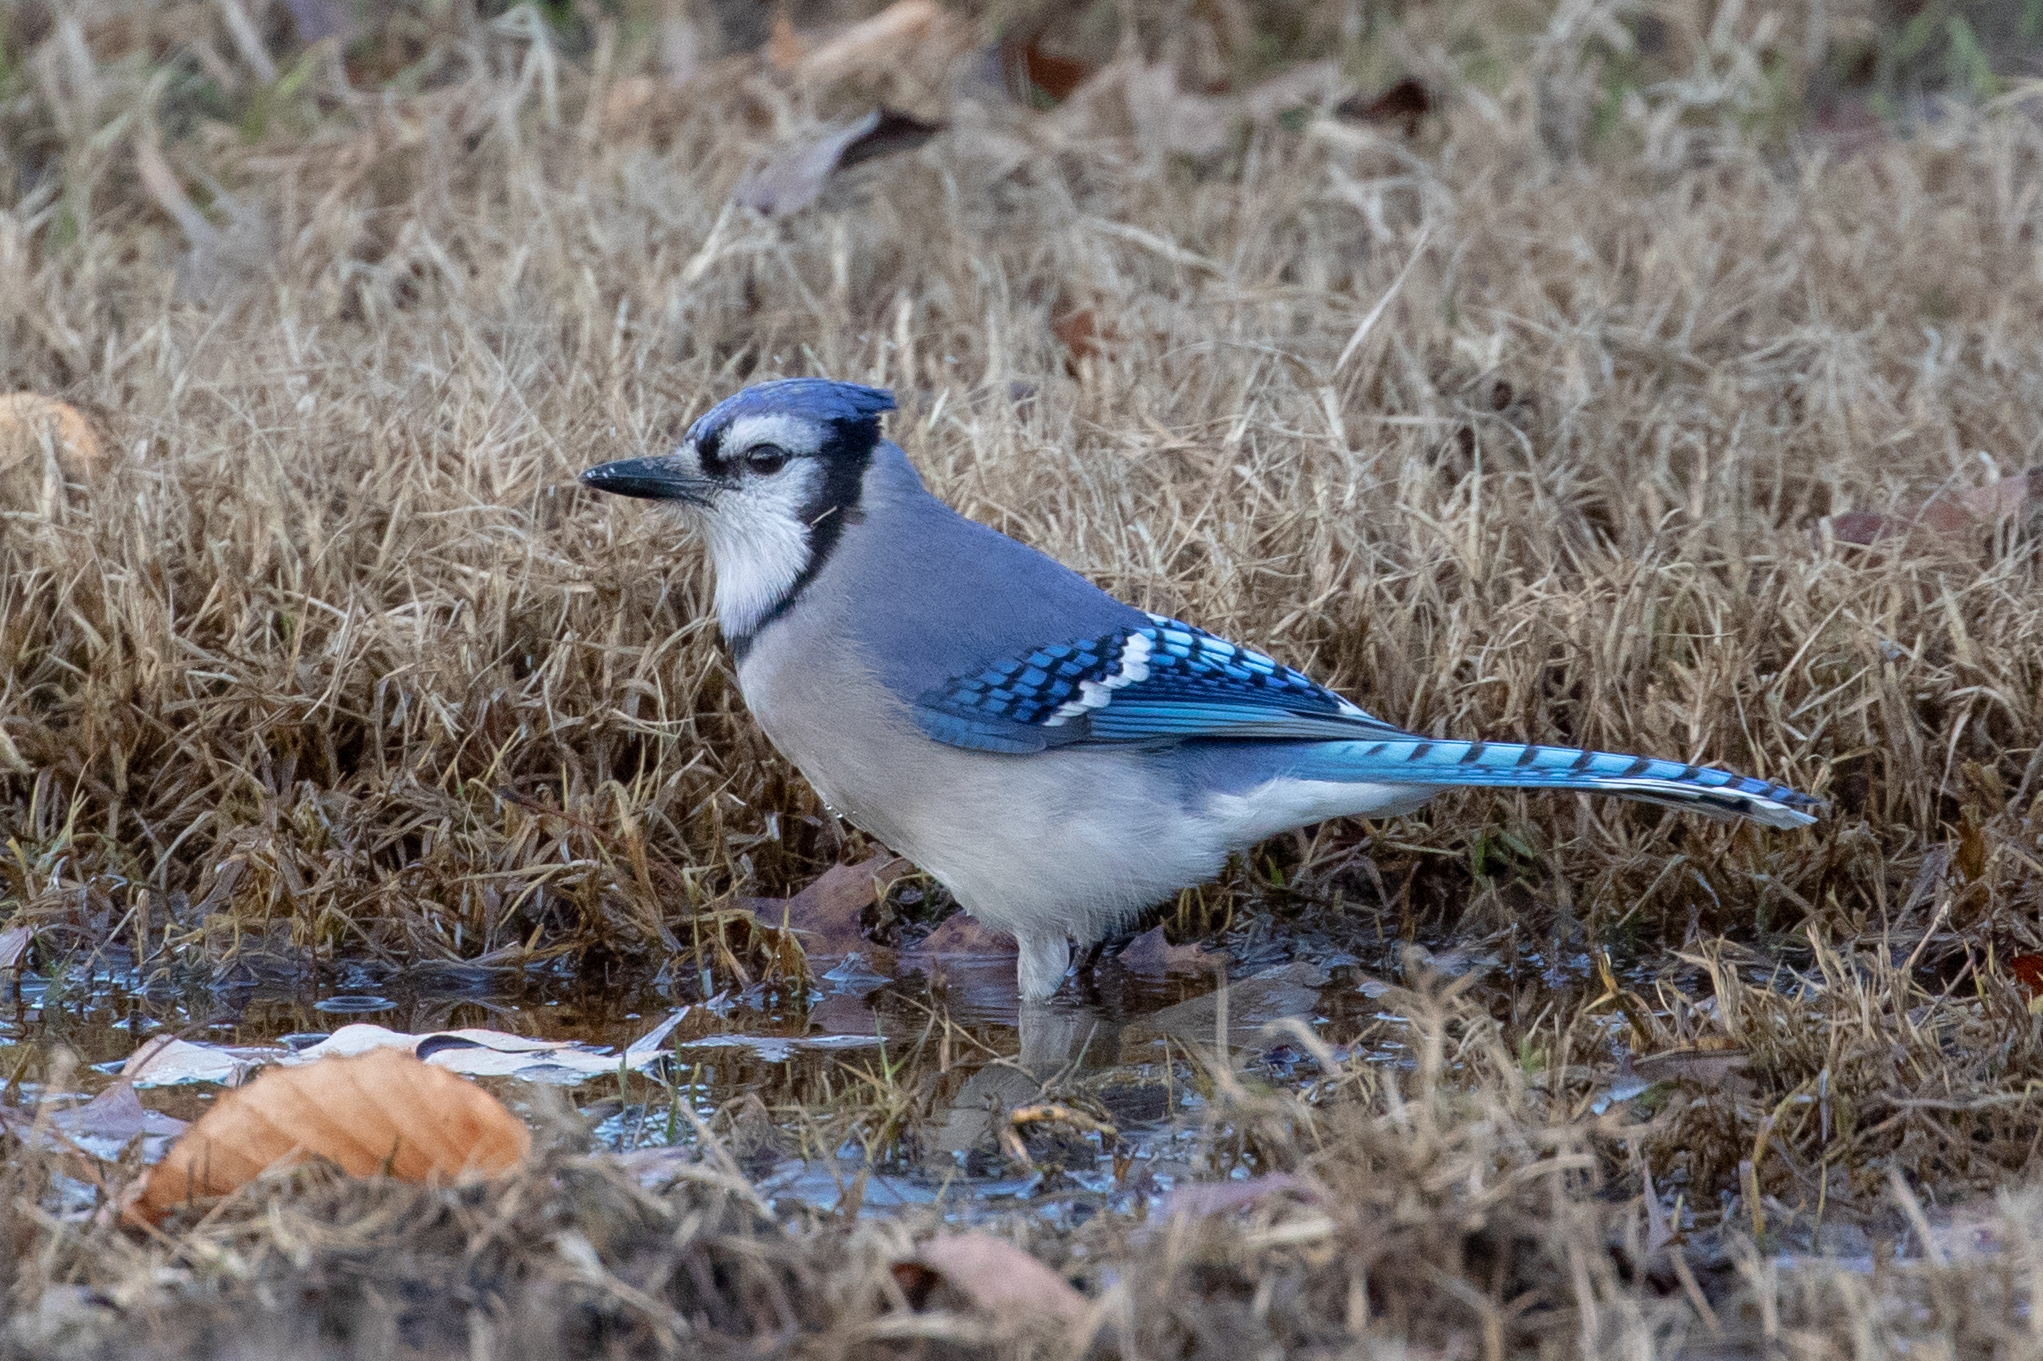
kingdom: Animalia
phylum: Chordata
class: Aves
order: Passeriformes
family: Corvidae
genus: Cyanocitta
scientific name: Cyanocitta cristata
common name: Blue jay
